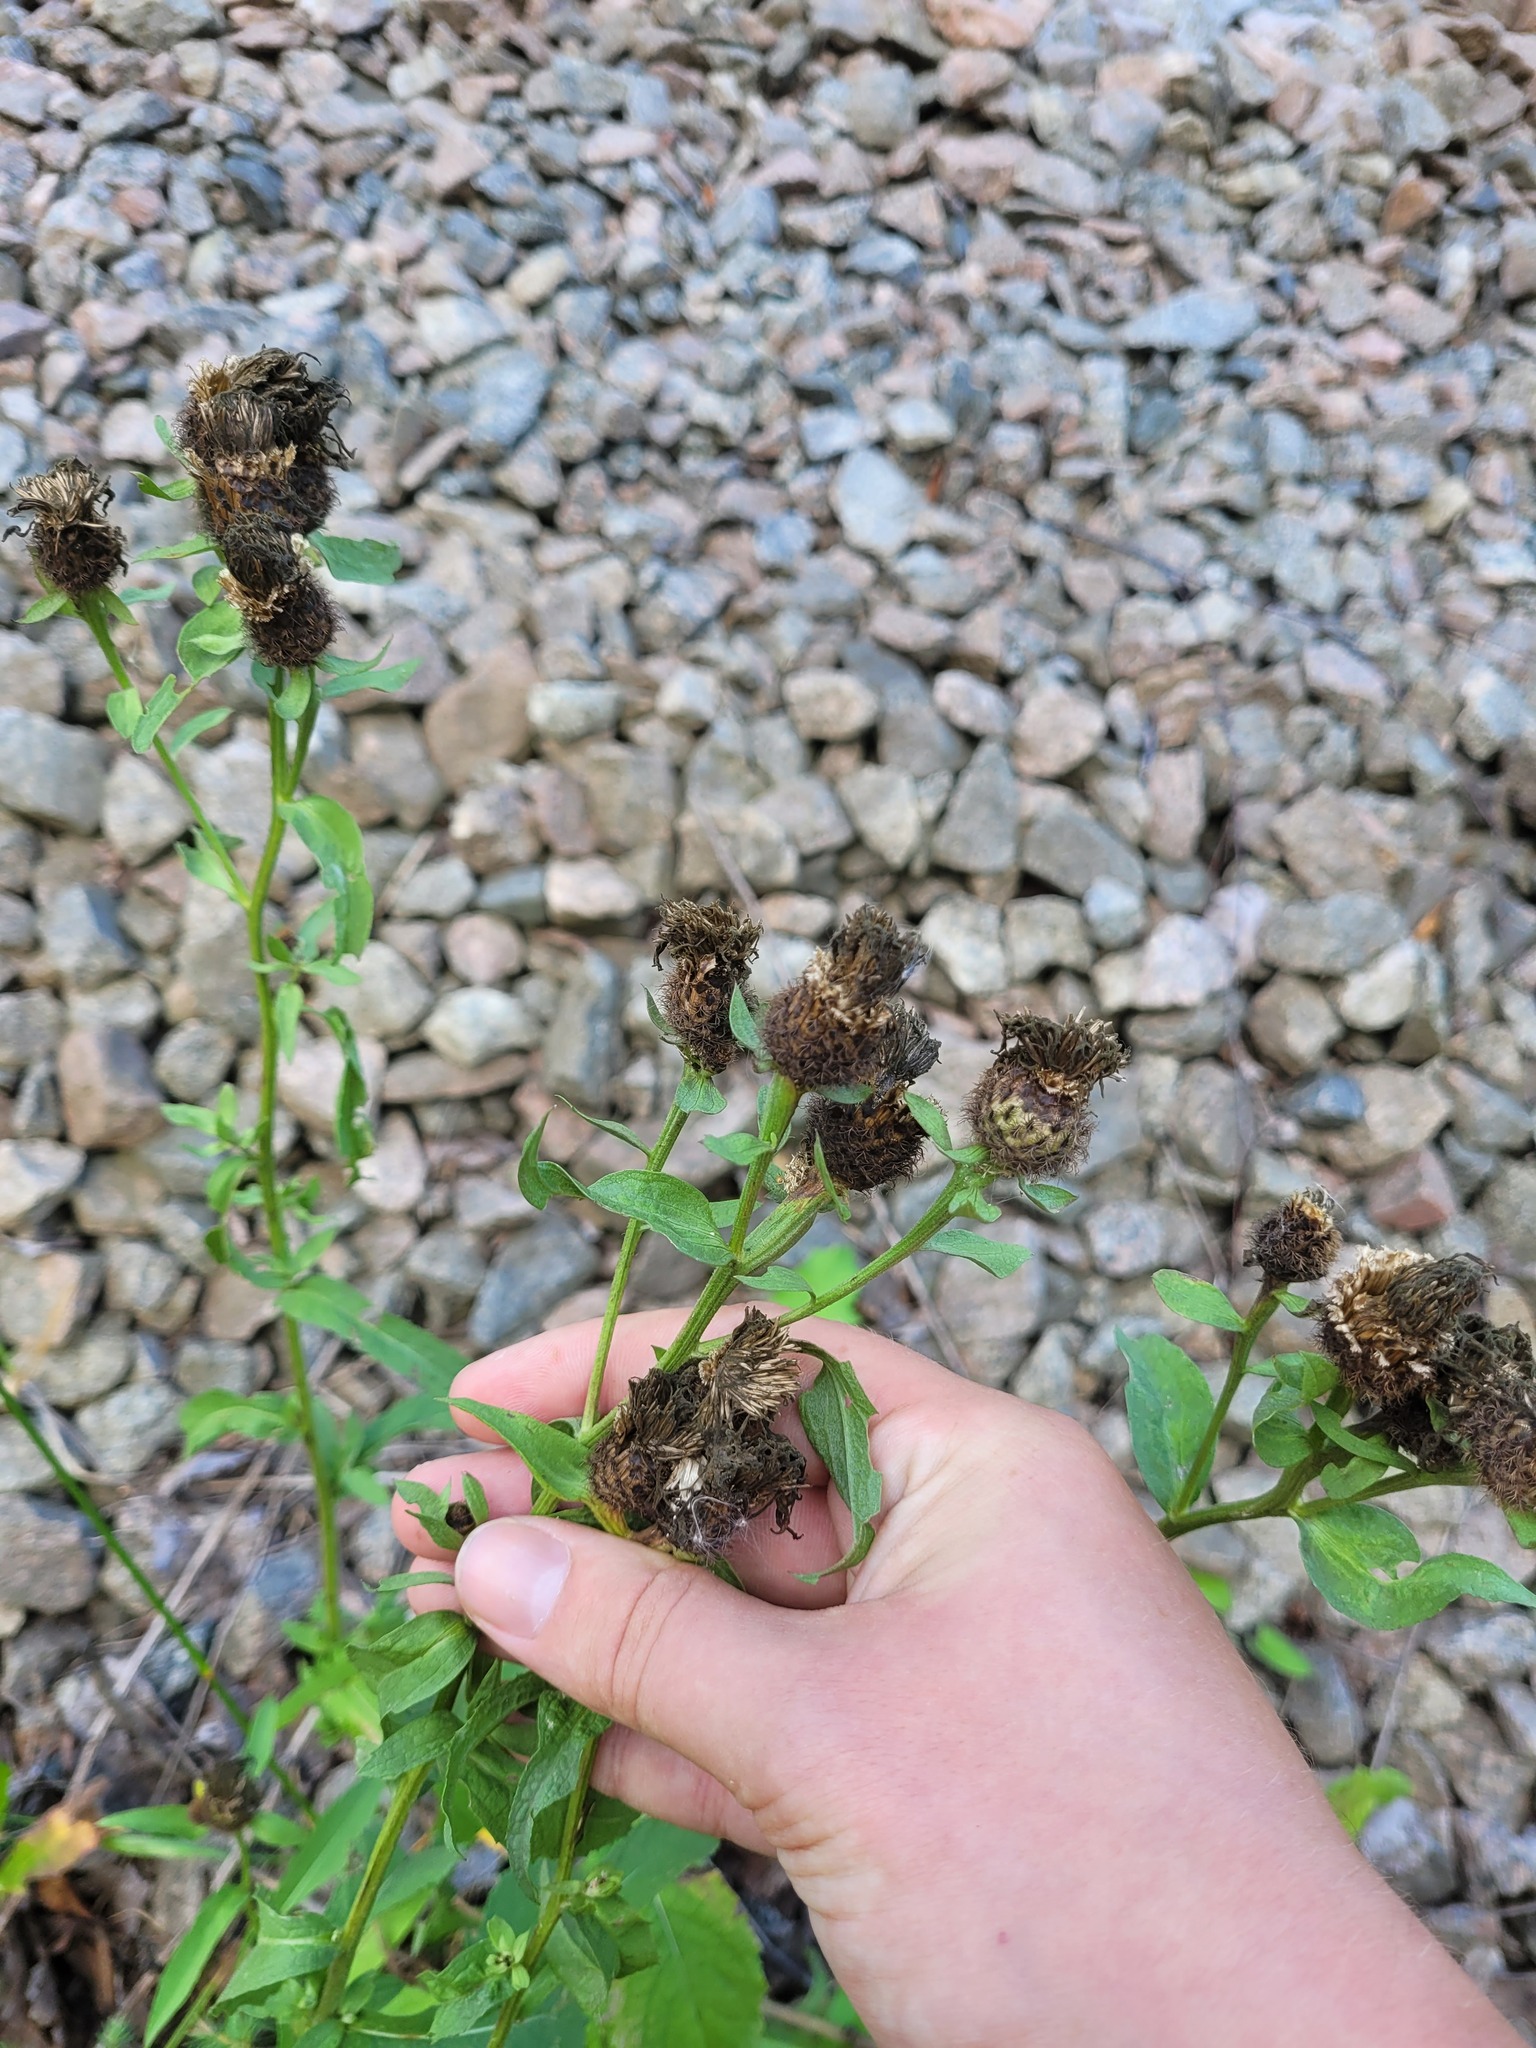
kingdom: Plantae
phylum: Tracheophyta
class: Magnoliopsida
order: Asterales
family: Asteraceae
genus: Centaurea
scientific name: Centaurea pseudophrygia
